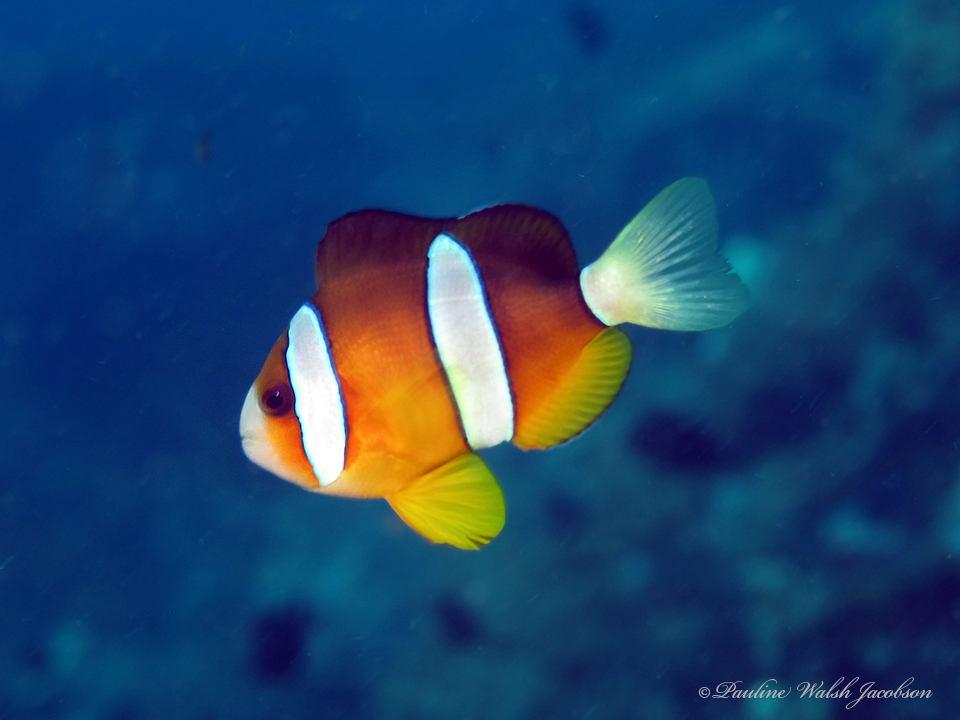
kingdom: Animalia
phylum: Chordata
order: Perciformes
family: Pomacentridae
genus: Amphiprion
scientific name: Amphiprion clarkii
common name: Clark's anemonefish
